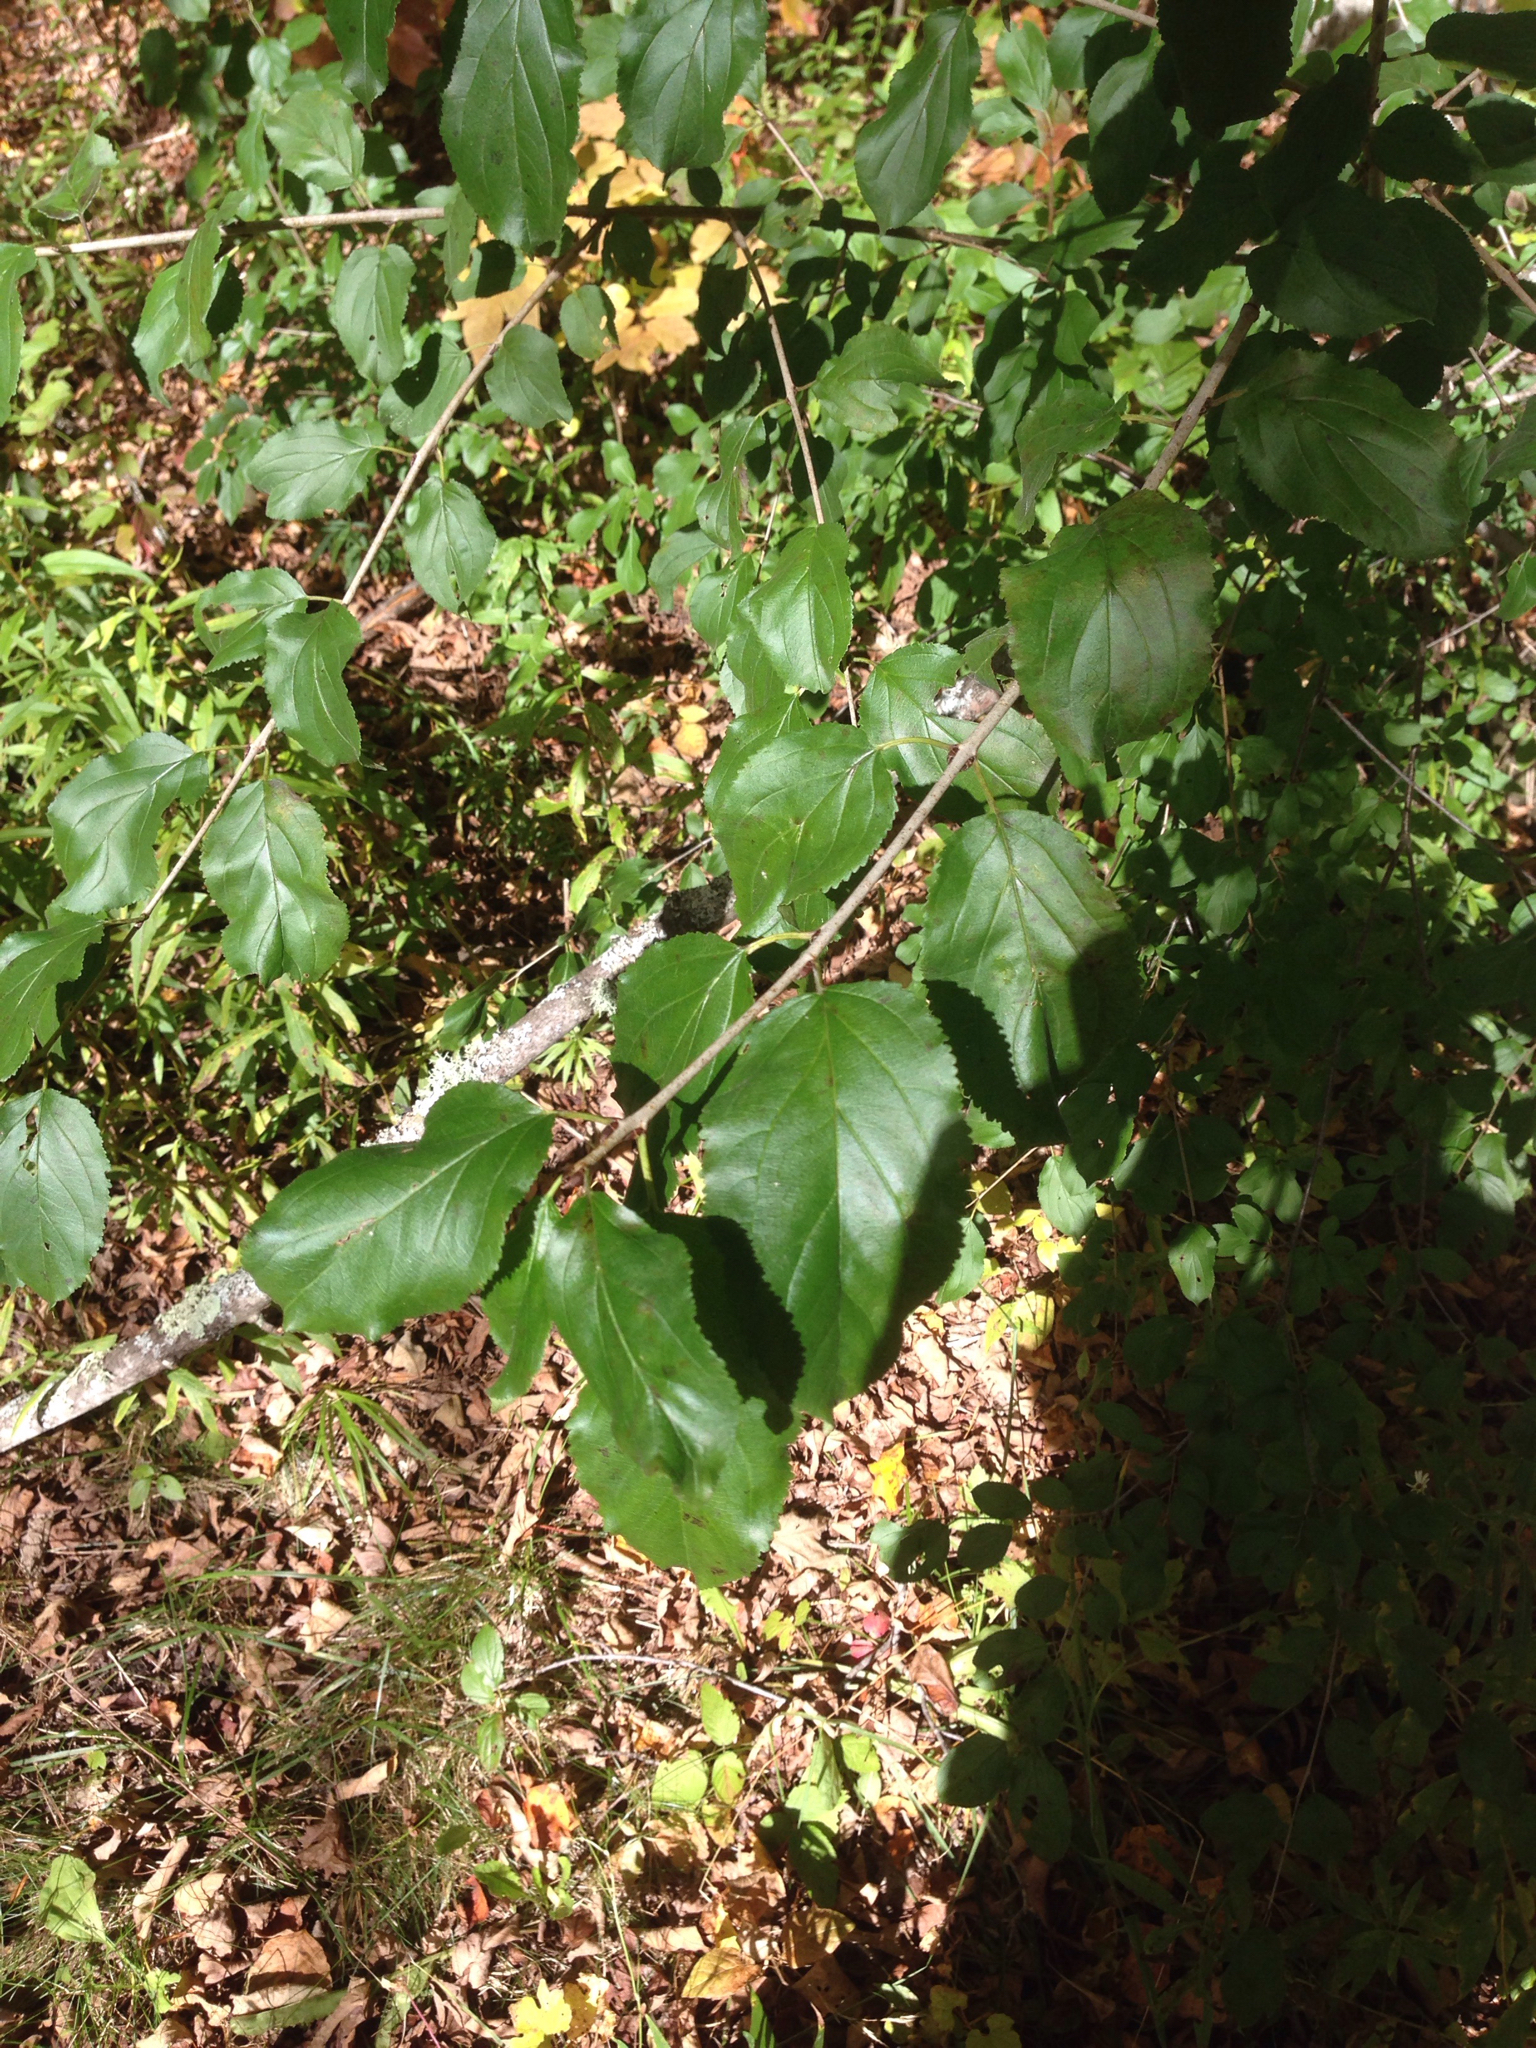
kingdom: Plantae
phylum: Tracheophyta
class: Magnoliopsida
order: Rosales
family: Rhamnaceae
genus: Rhamnus
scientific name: Rhamnus cathartica
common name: Common buckthorn
